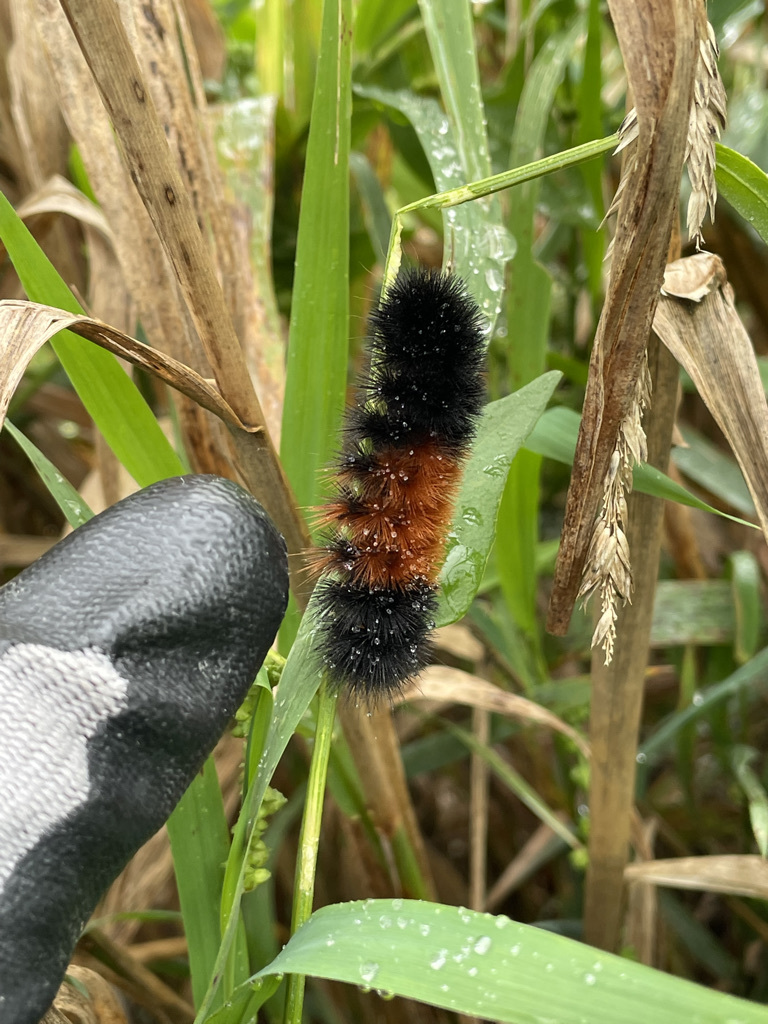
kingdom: Animalia
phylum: Arthropoda
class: Insecta
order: Lepidoptera
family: Erebidae
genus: Pyrrharctia
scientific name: Pyrrharctia isabella
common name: Isabella tiger moth
